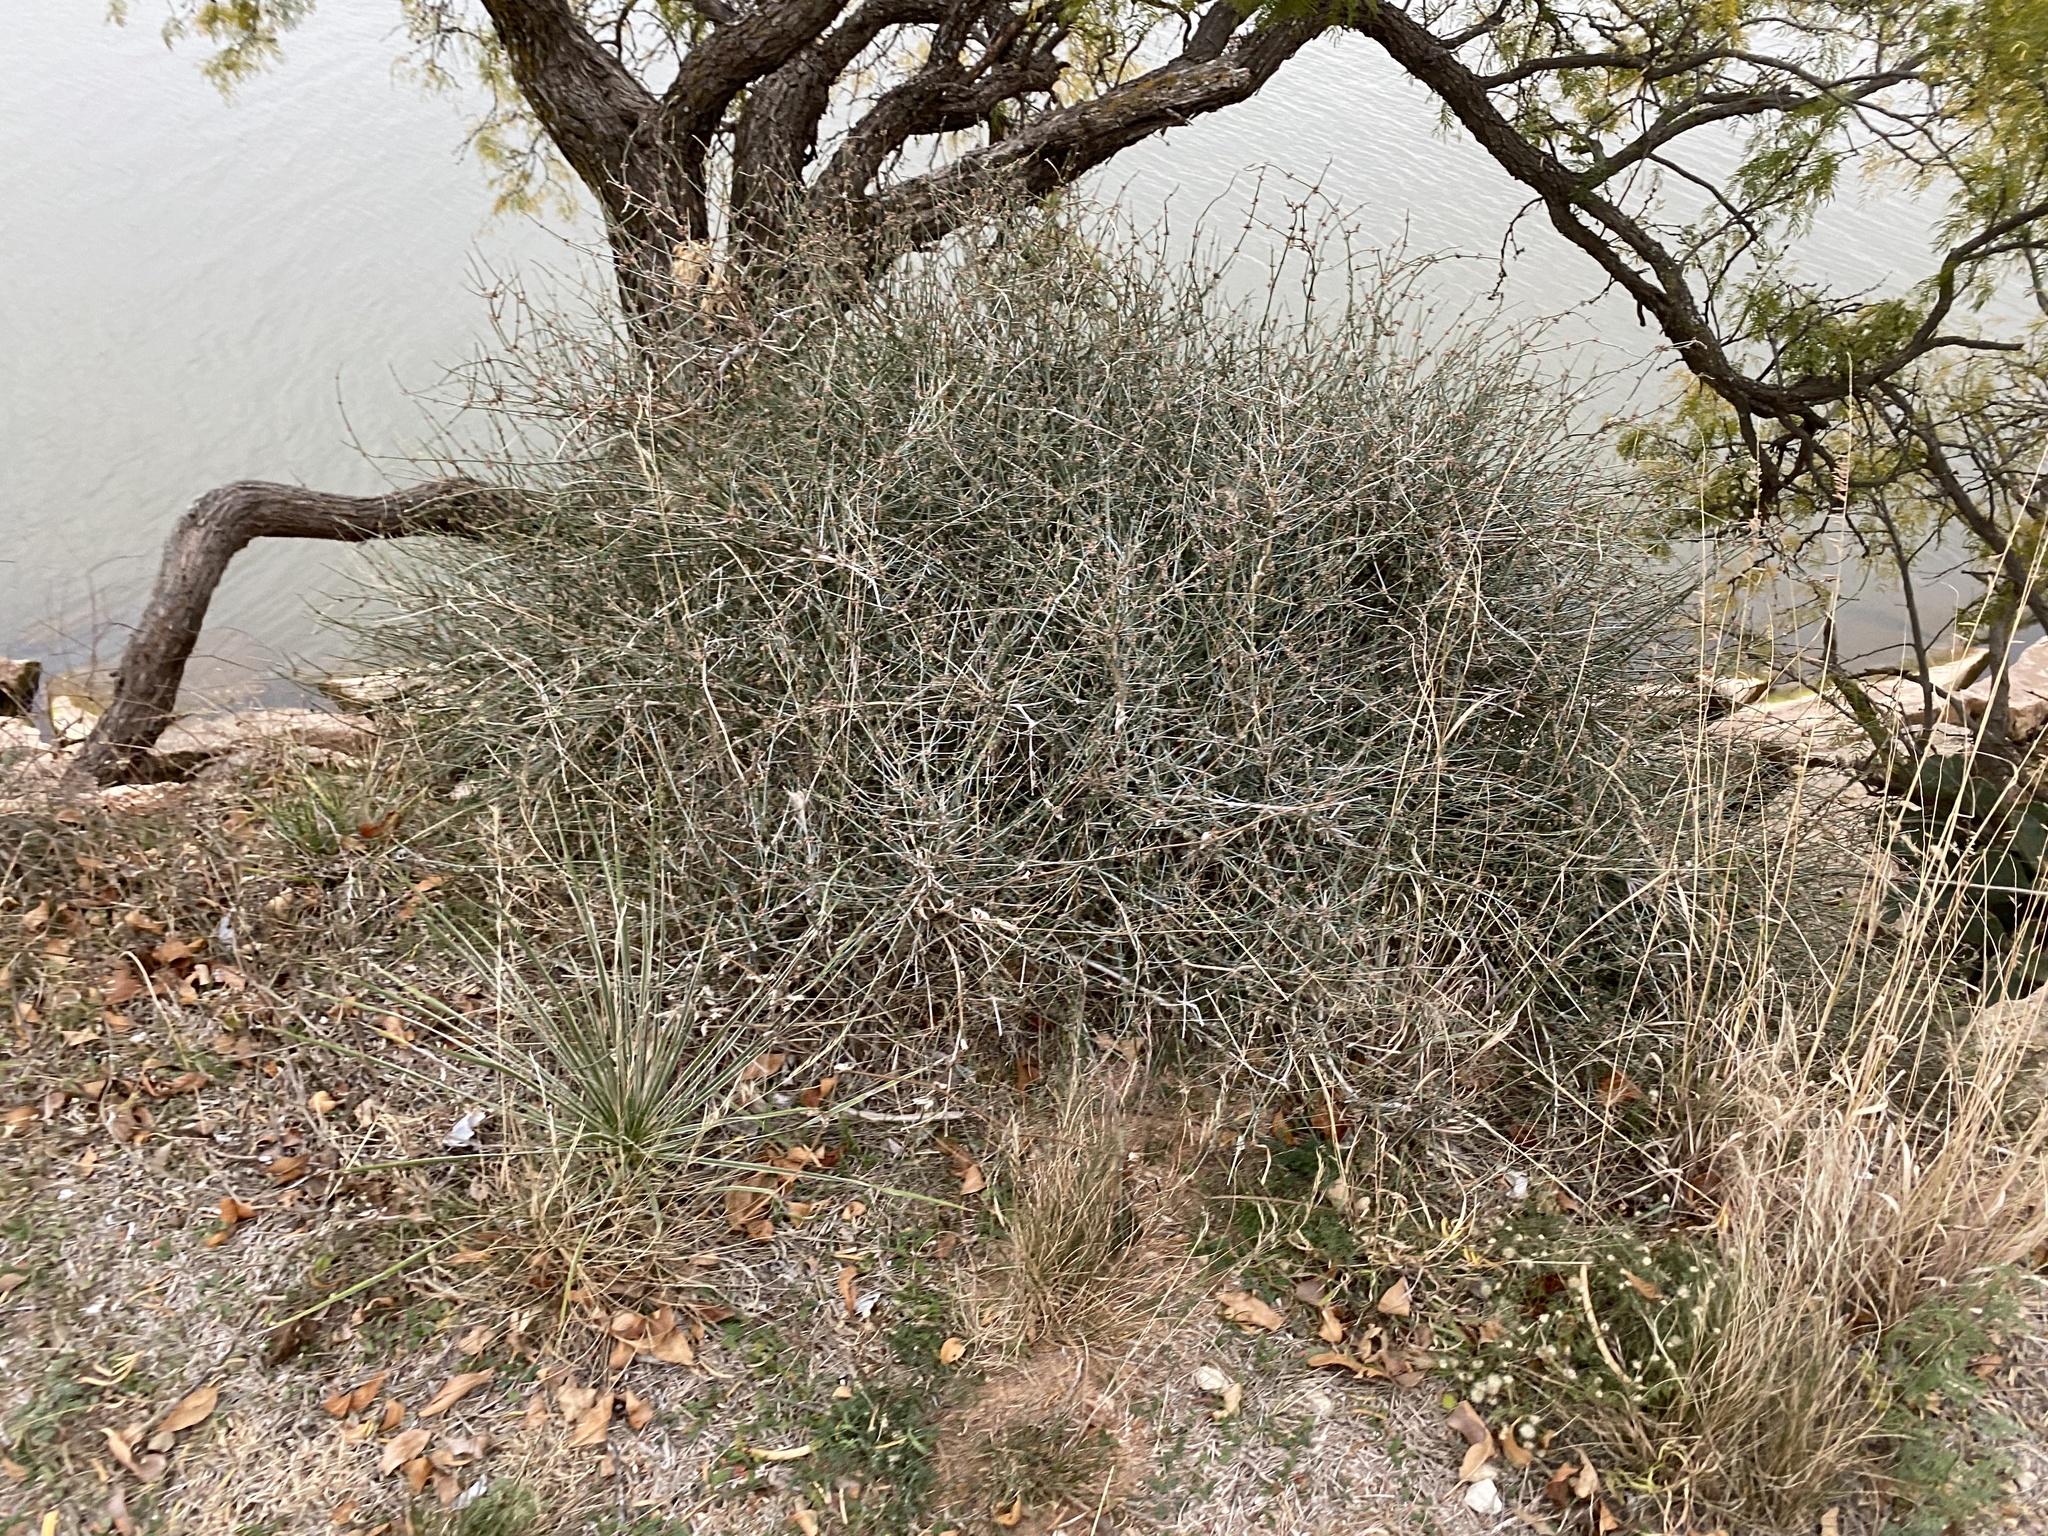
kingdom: Plantae
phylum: Tracheophyta
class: Gnetopsida
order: Ephedrales
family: Ephedraceae
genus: Ephedra
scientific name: Ephedra antisyphilitica
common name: Clipweed
